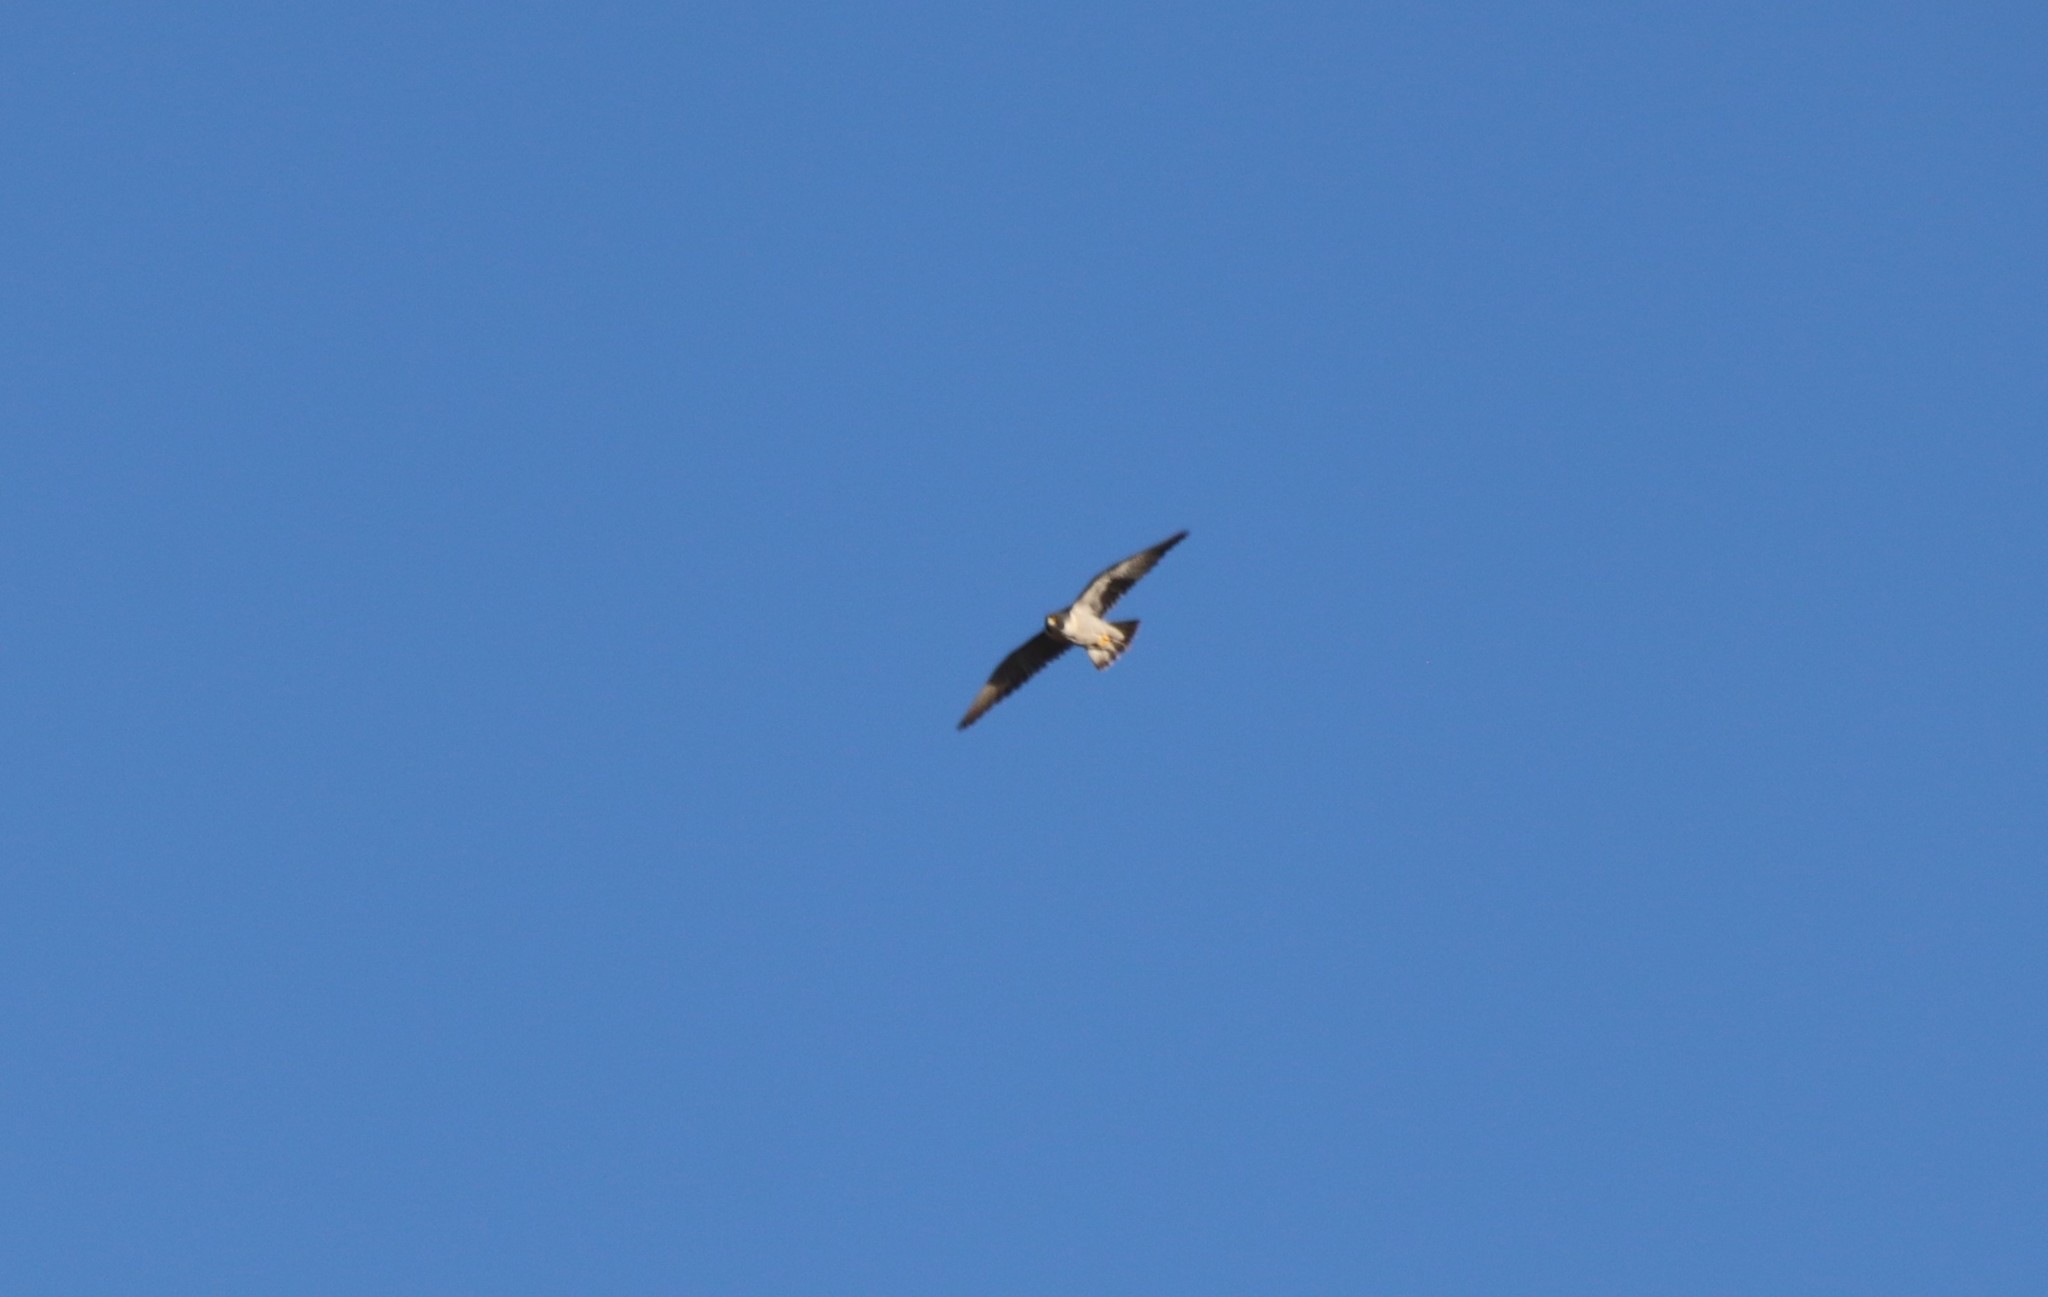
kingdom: Animalia
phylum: Chordata
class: Aves
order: Falconiformes
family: Falconidae
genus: Falco
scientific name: Falco peregrinus
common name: Peregrine falcon
